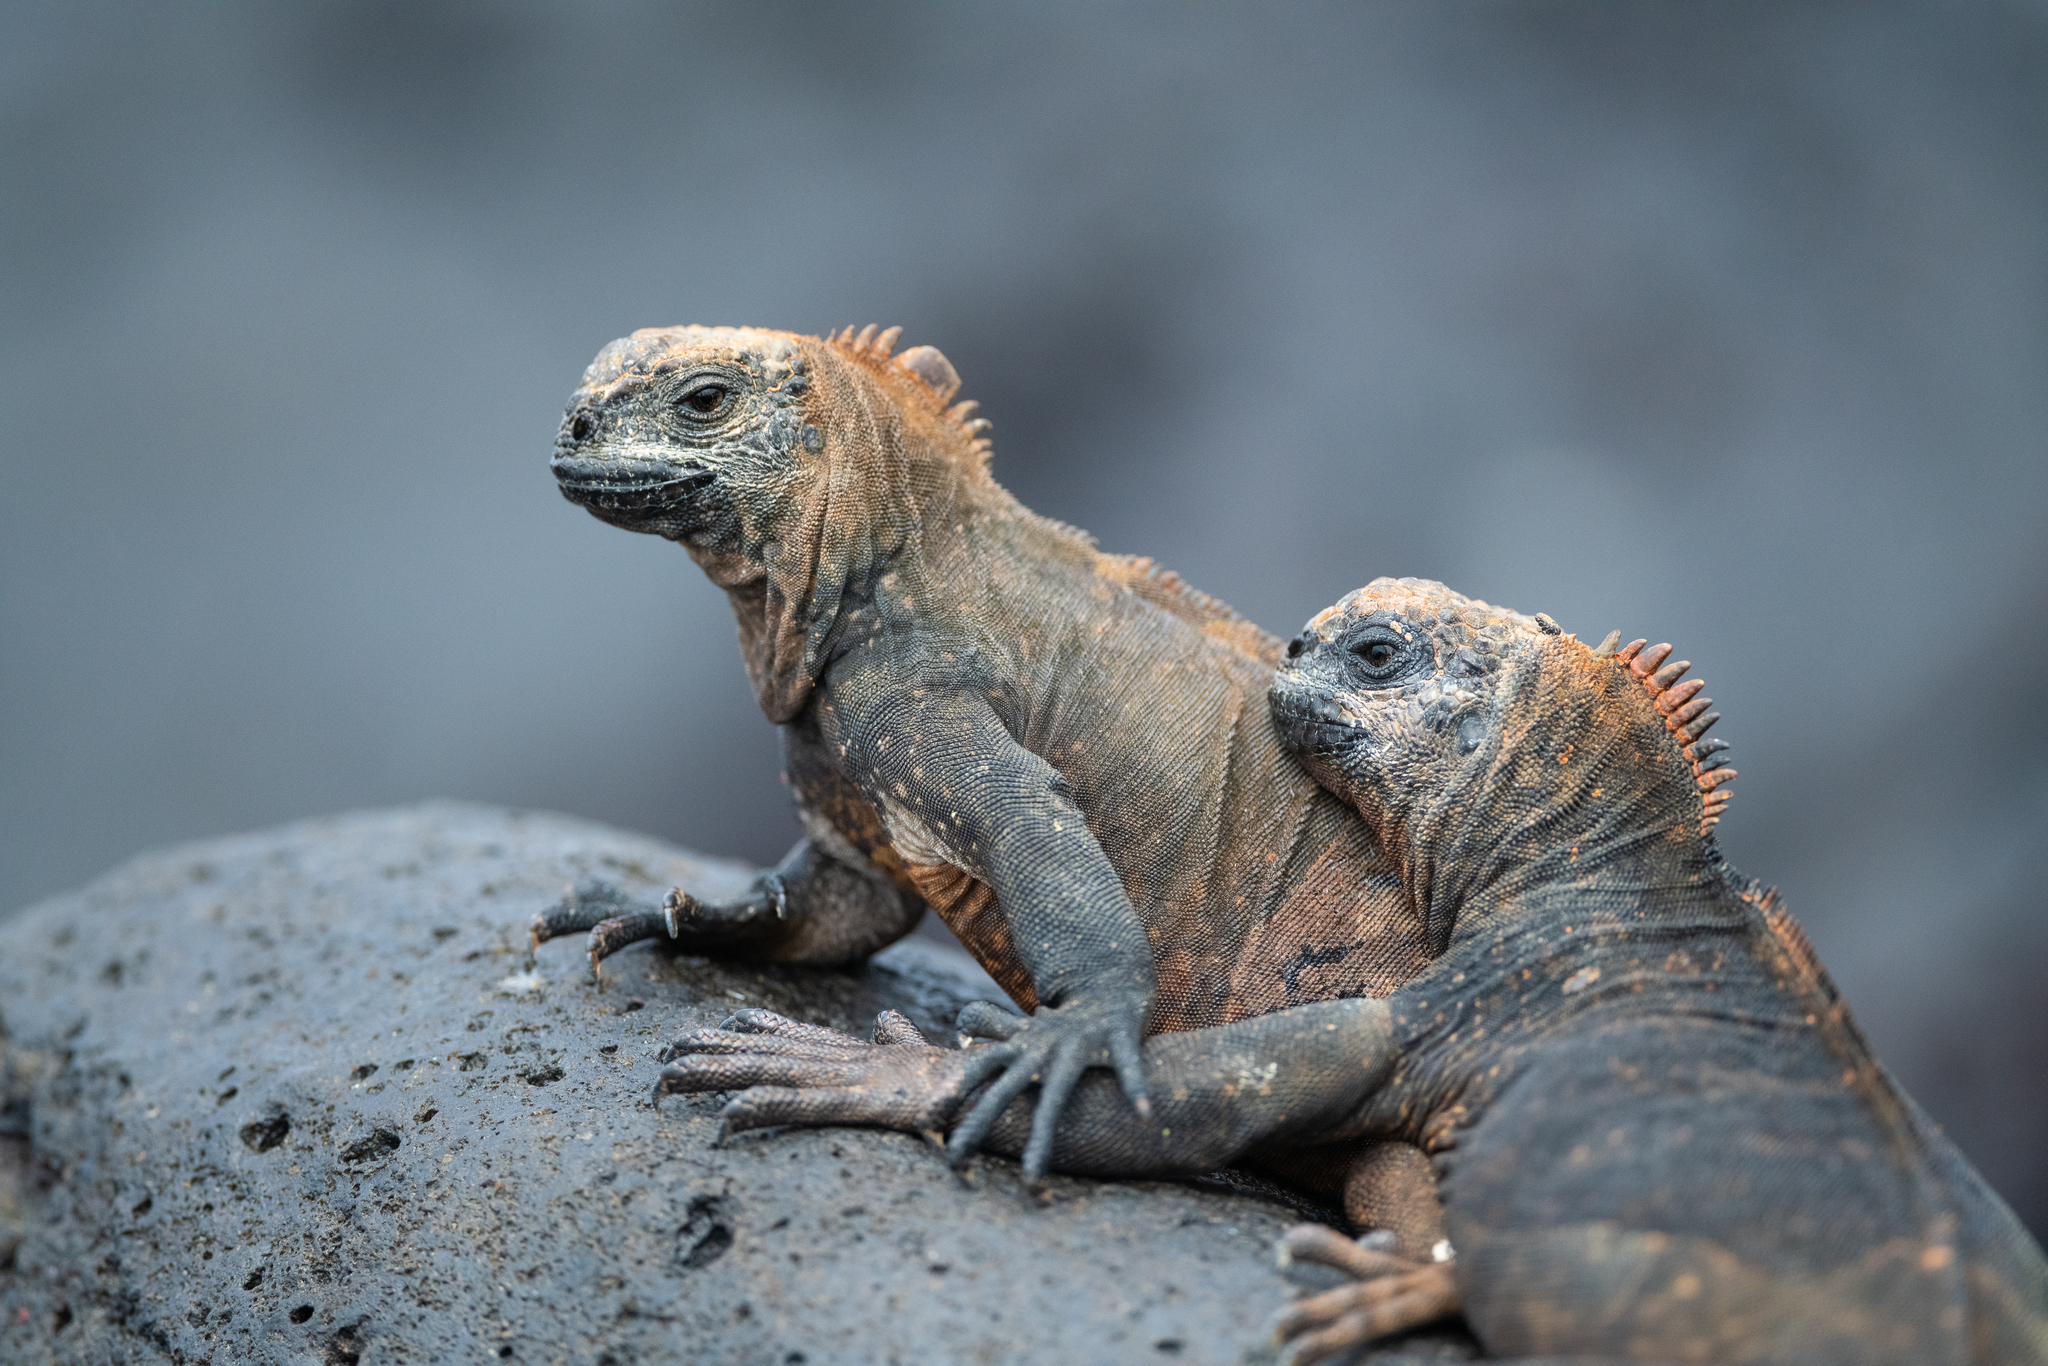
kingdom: Animalia
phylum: Chordata
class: Squamata
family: Iguanidae
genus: Amblyrhynchus
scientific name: Amblyrhynchus cristatus
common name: Marine iguana
